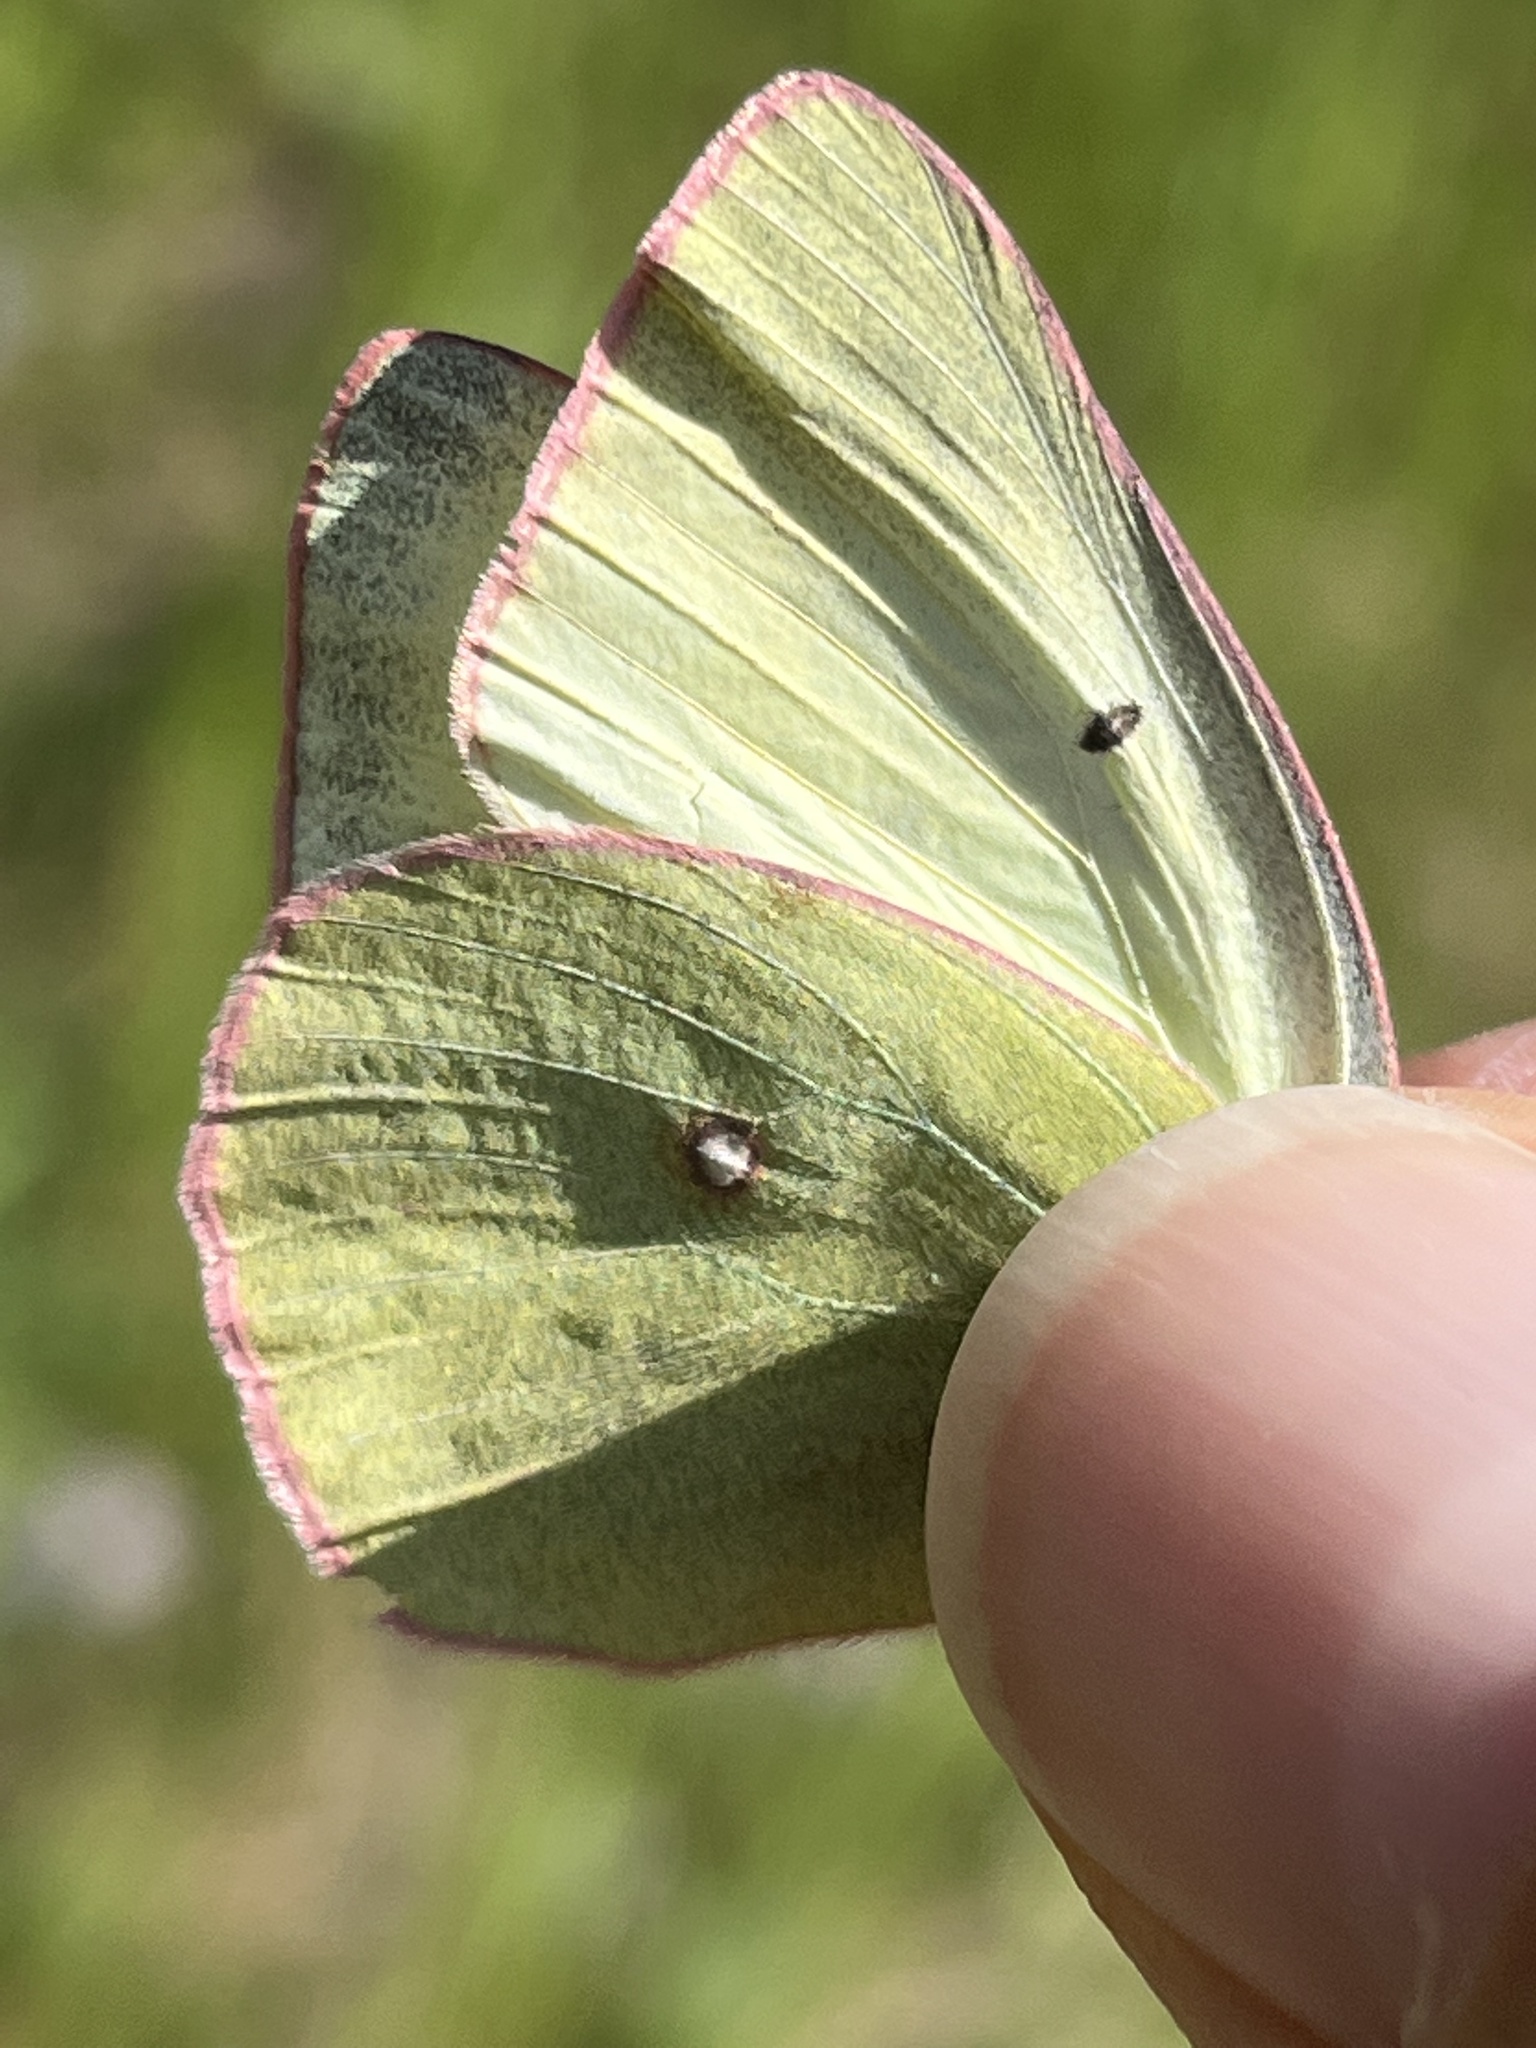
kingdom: Animalia
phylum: Arthropoda
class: Insecta
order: Lepidoptera
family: Pieridae
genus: Colias
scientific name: Colias christina
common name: Christina sulphur
